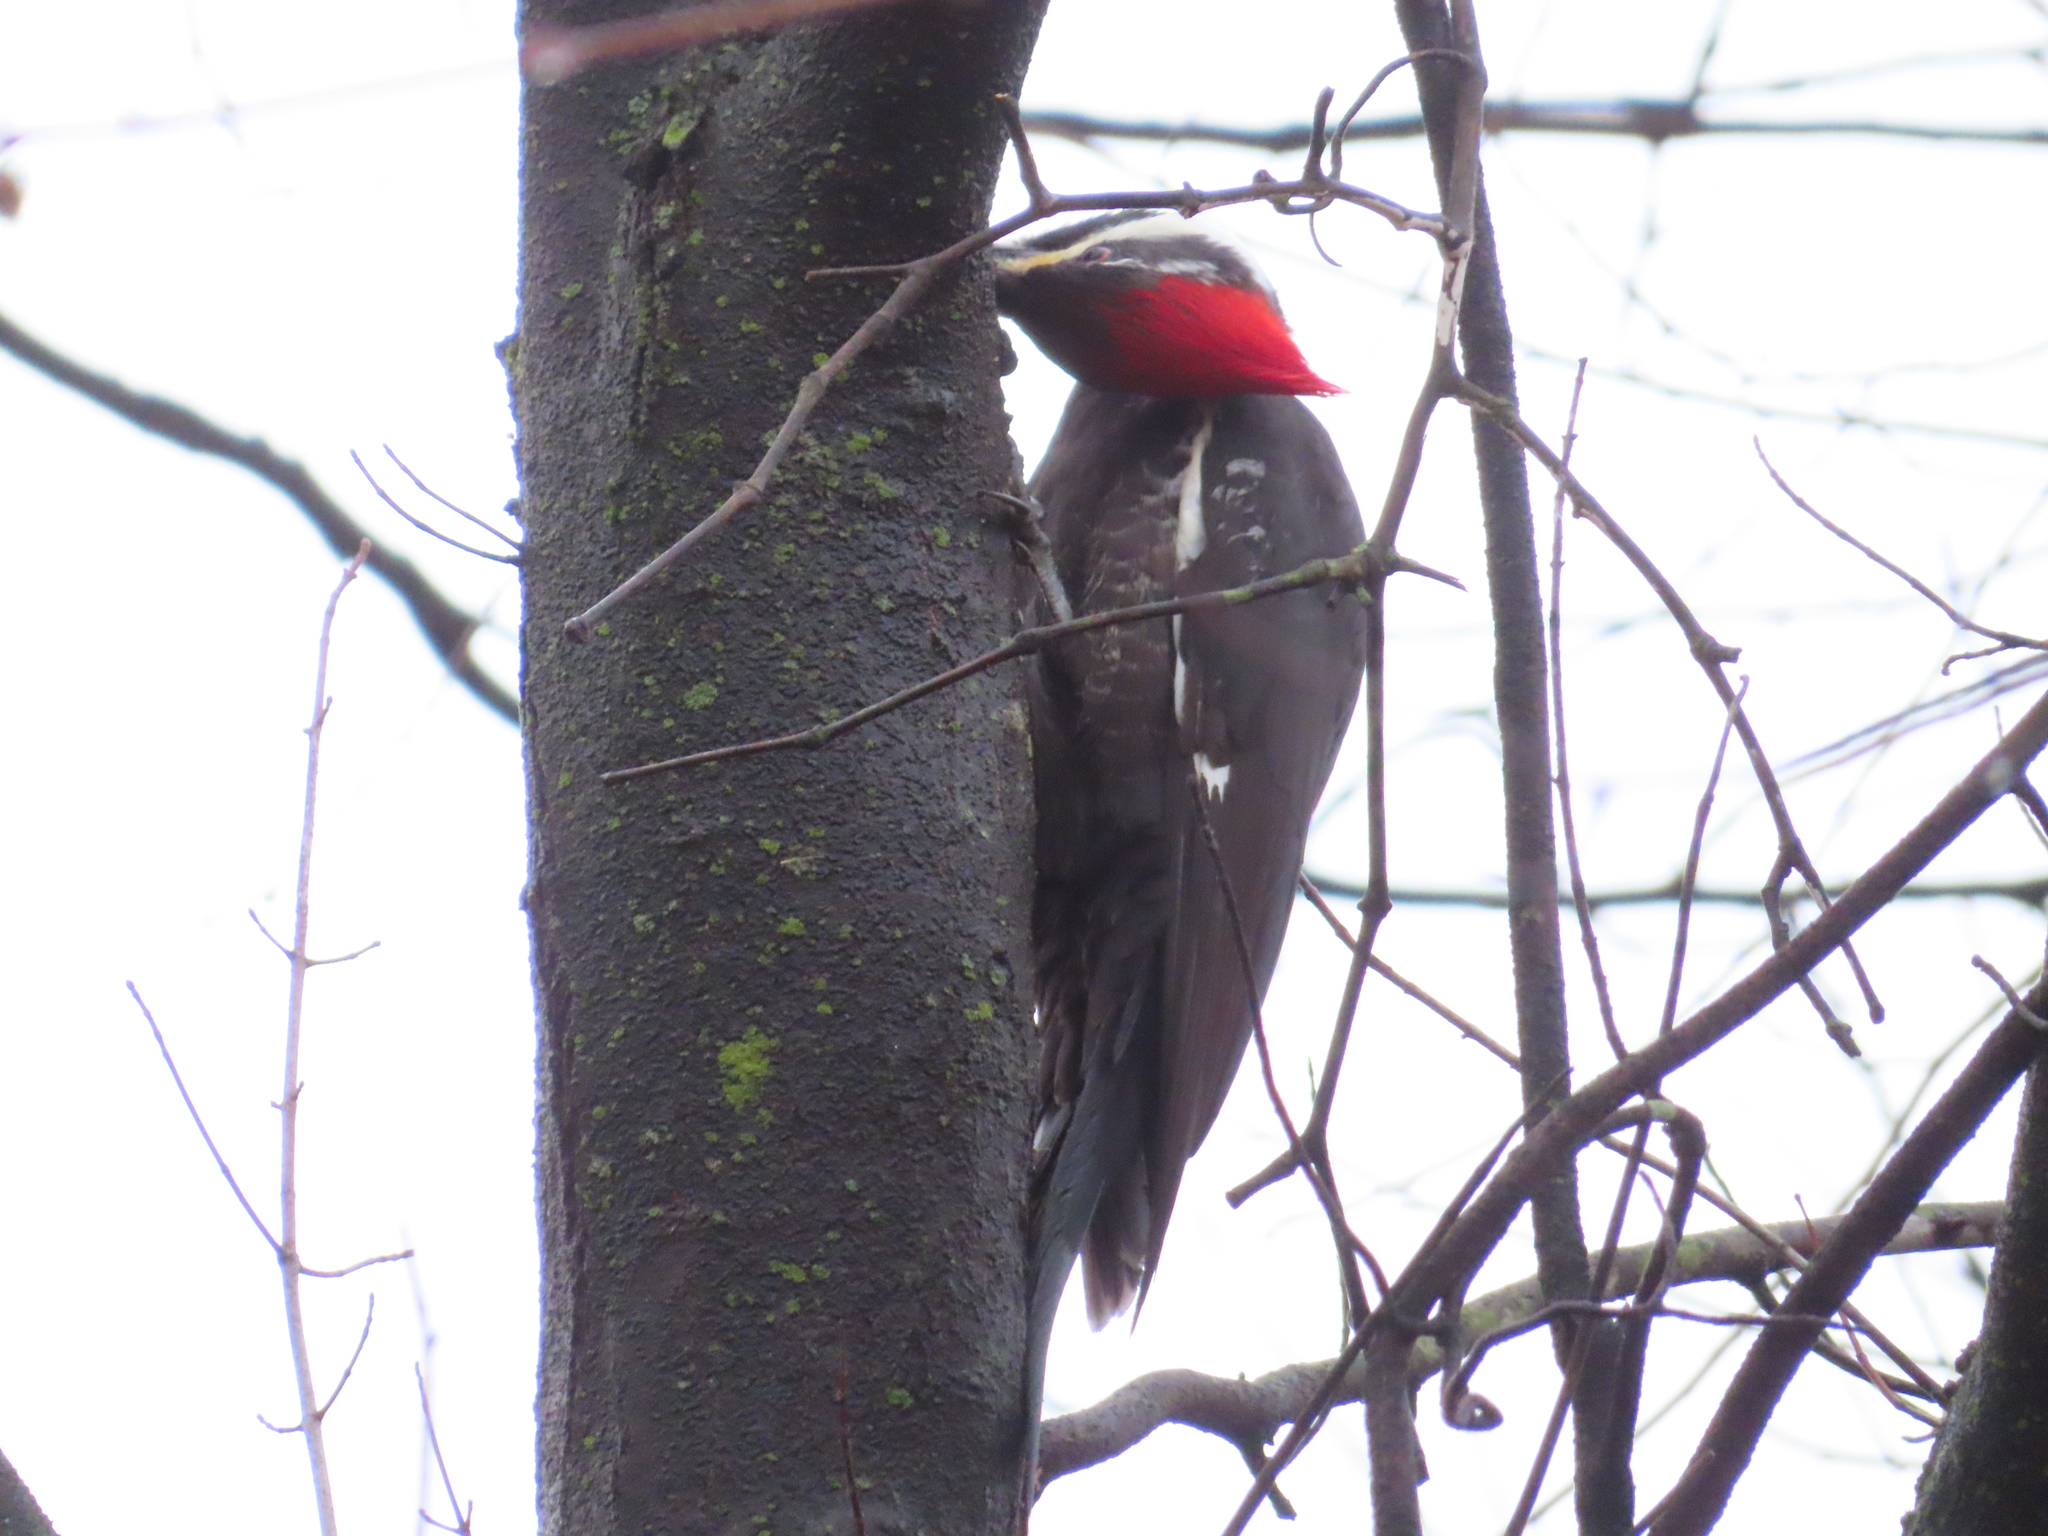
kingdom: Animalia
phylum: Chordata
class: Aves
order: Piciformes
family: Picidae
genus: Dryocopus
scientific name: Dryocopus pileatus
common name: Pileated woodpecker
